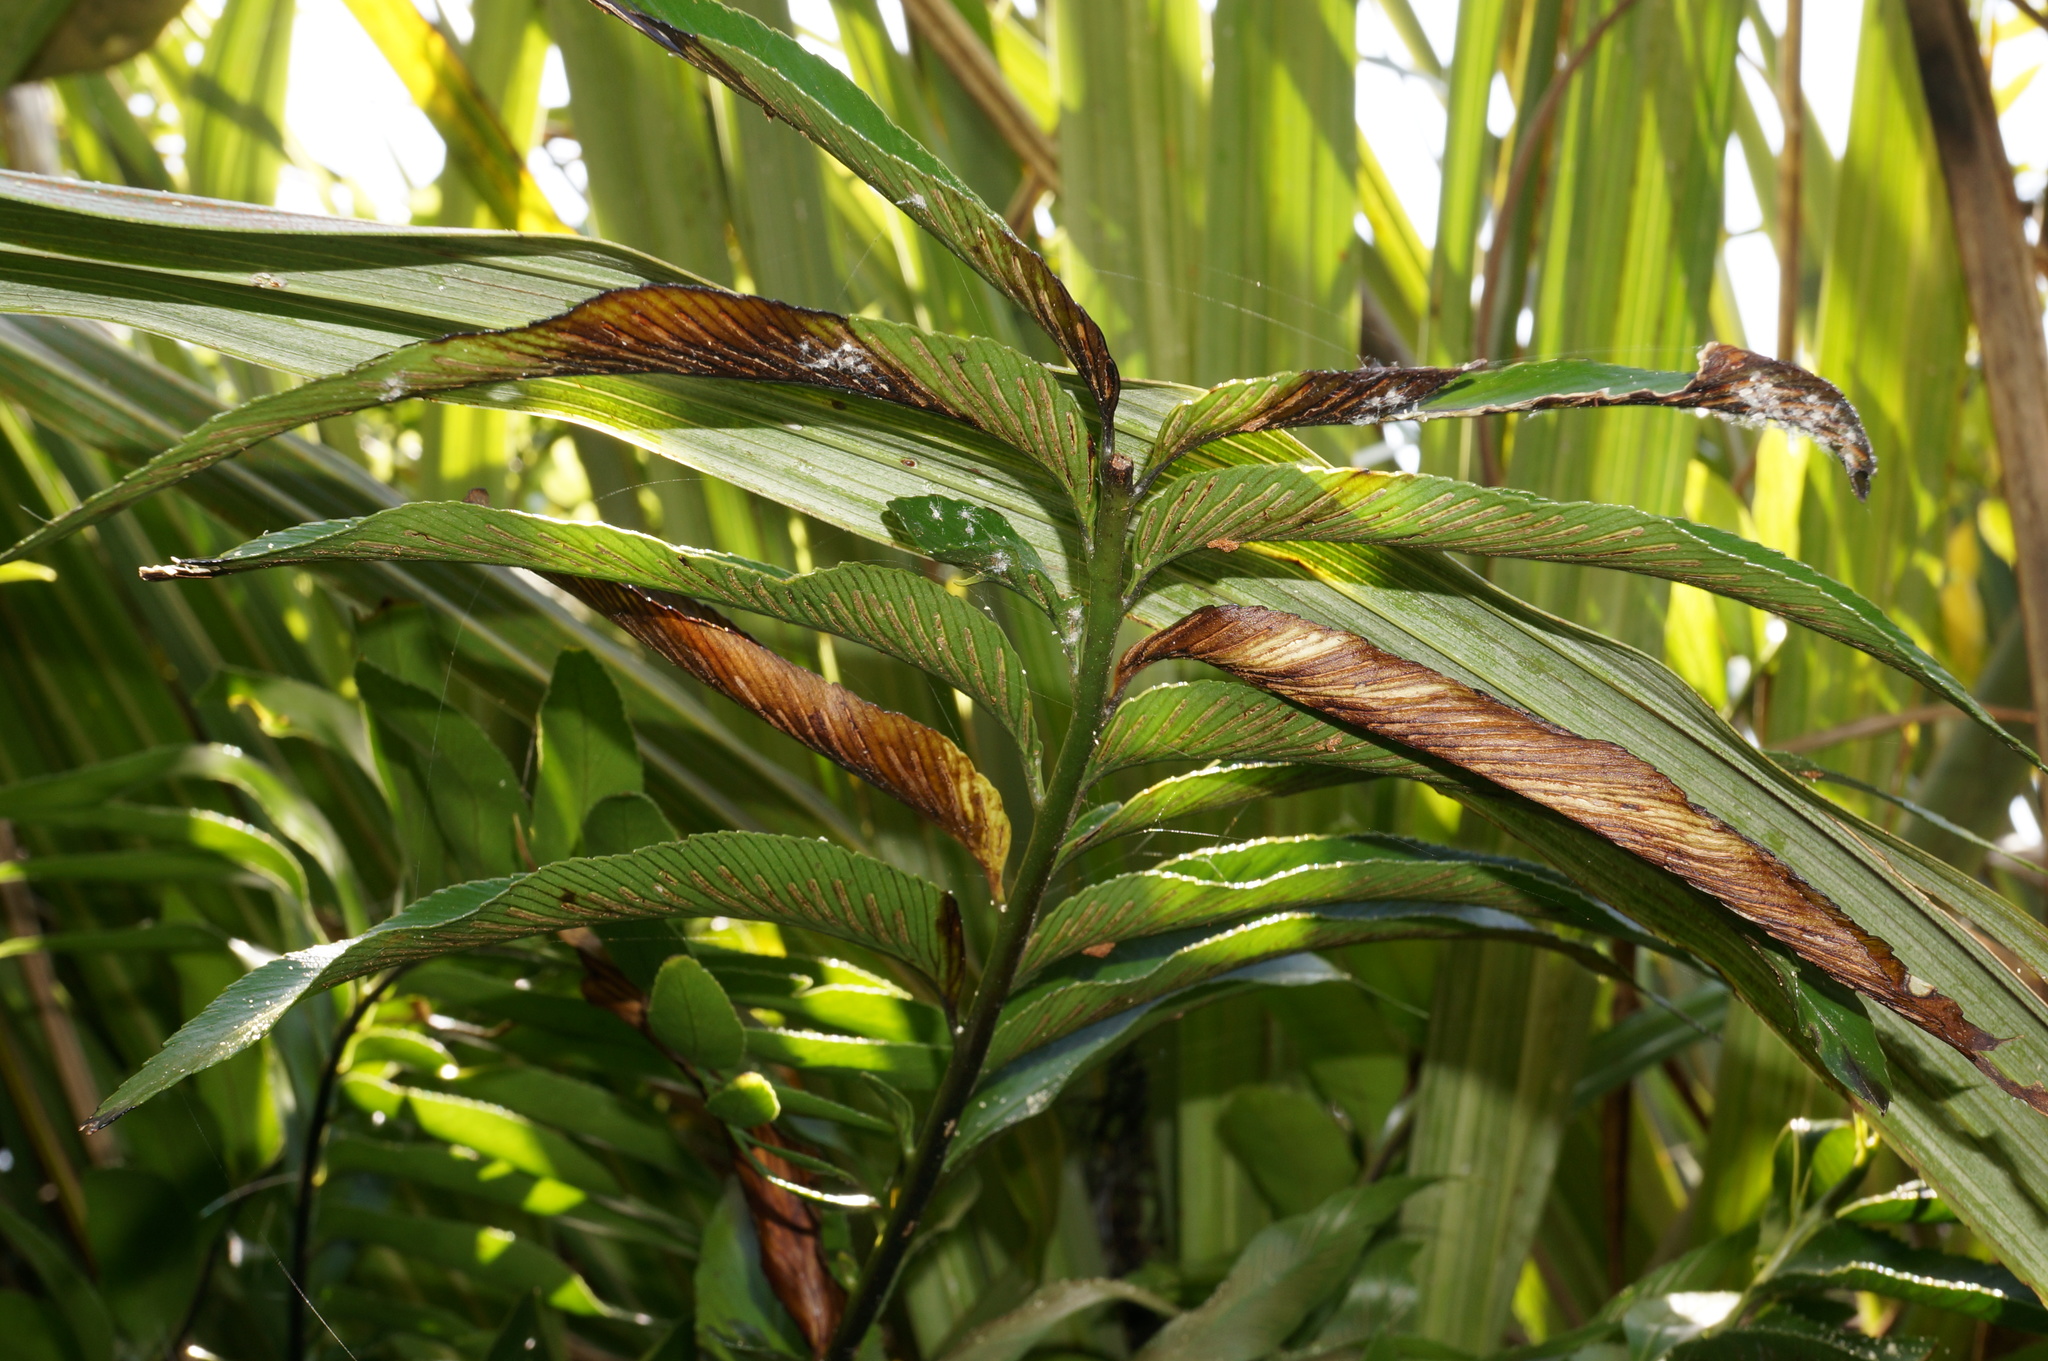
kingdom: Plantae
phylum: Tracheophyta
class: Polypodiopsida
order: Polypodiales
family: Aspleniaceae
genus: Asplenium
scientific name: Asplenium oblongifolium
